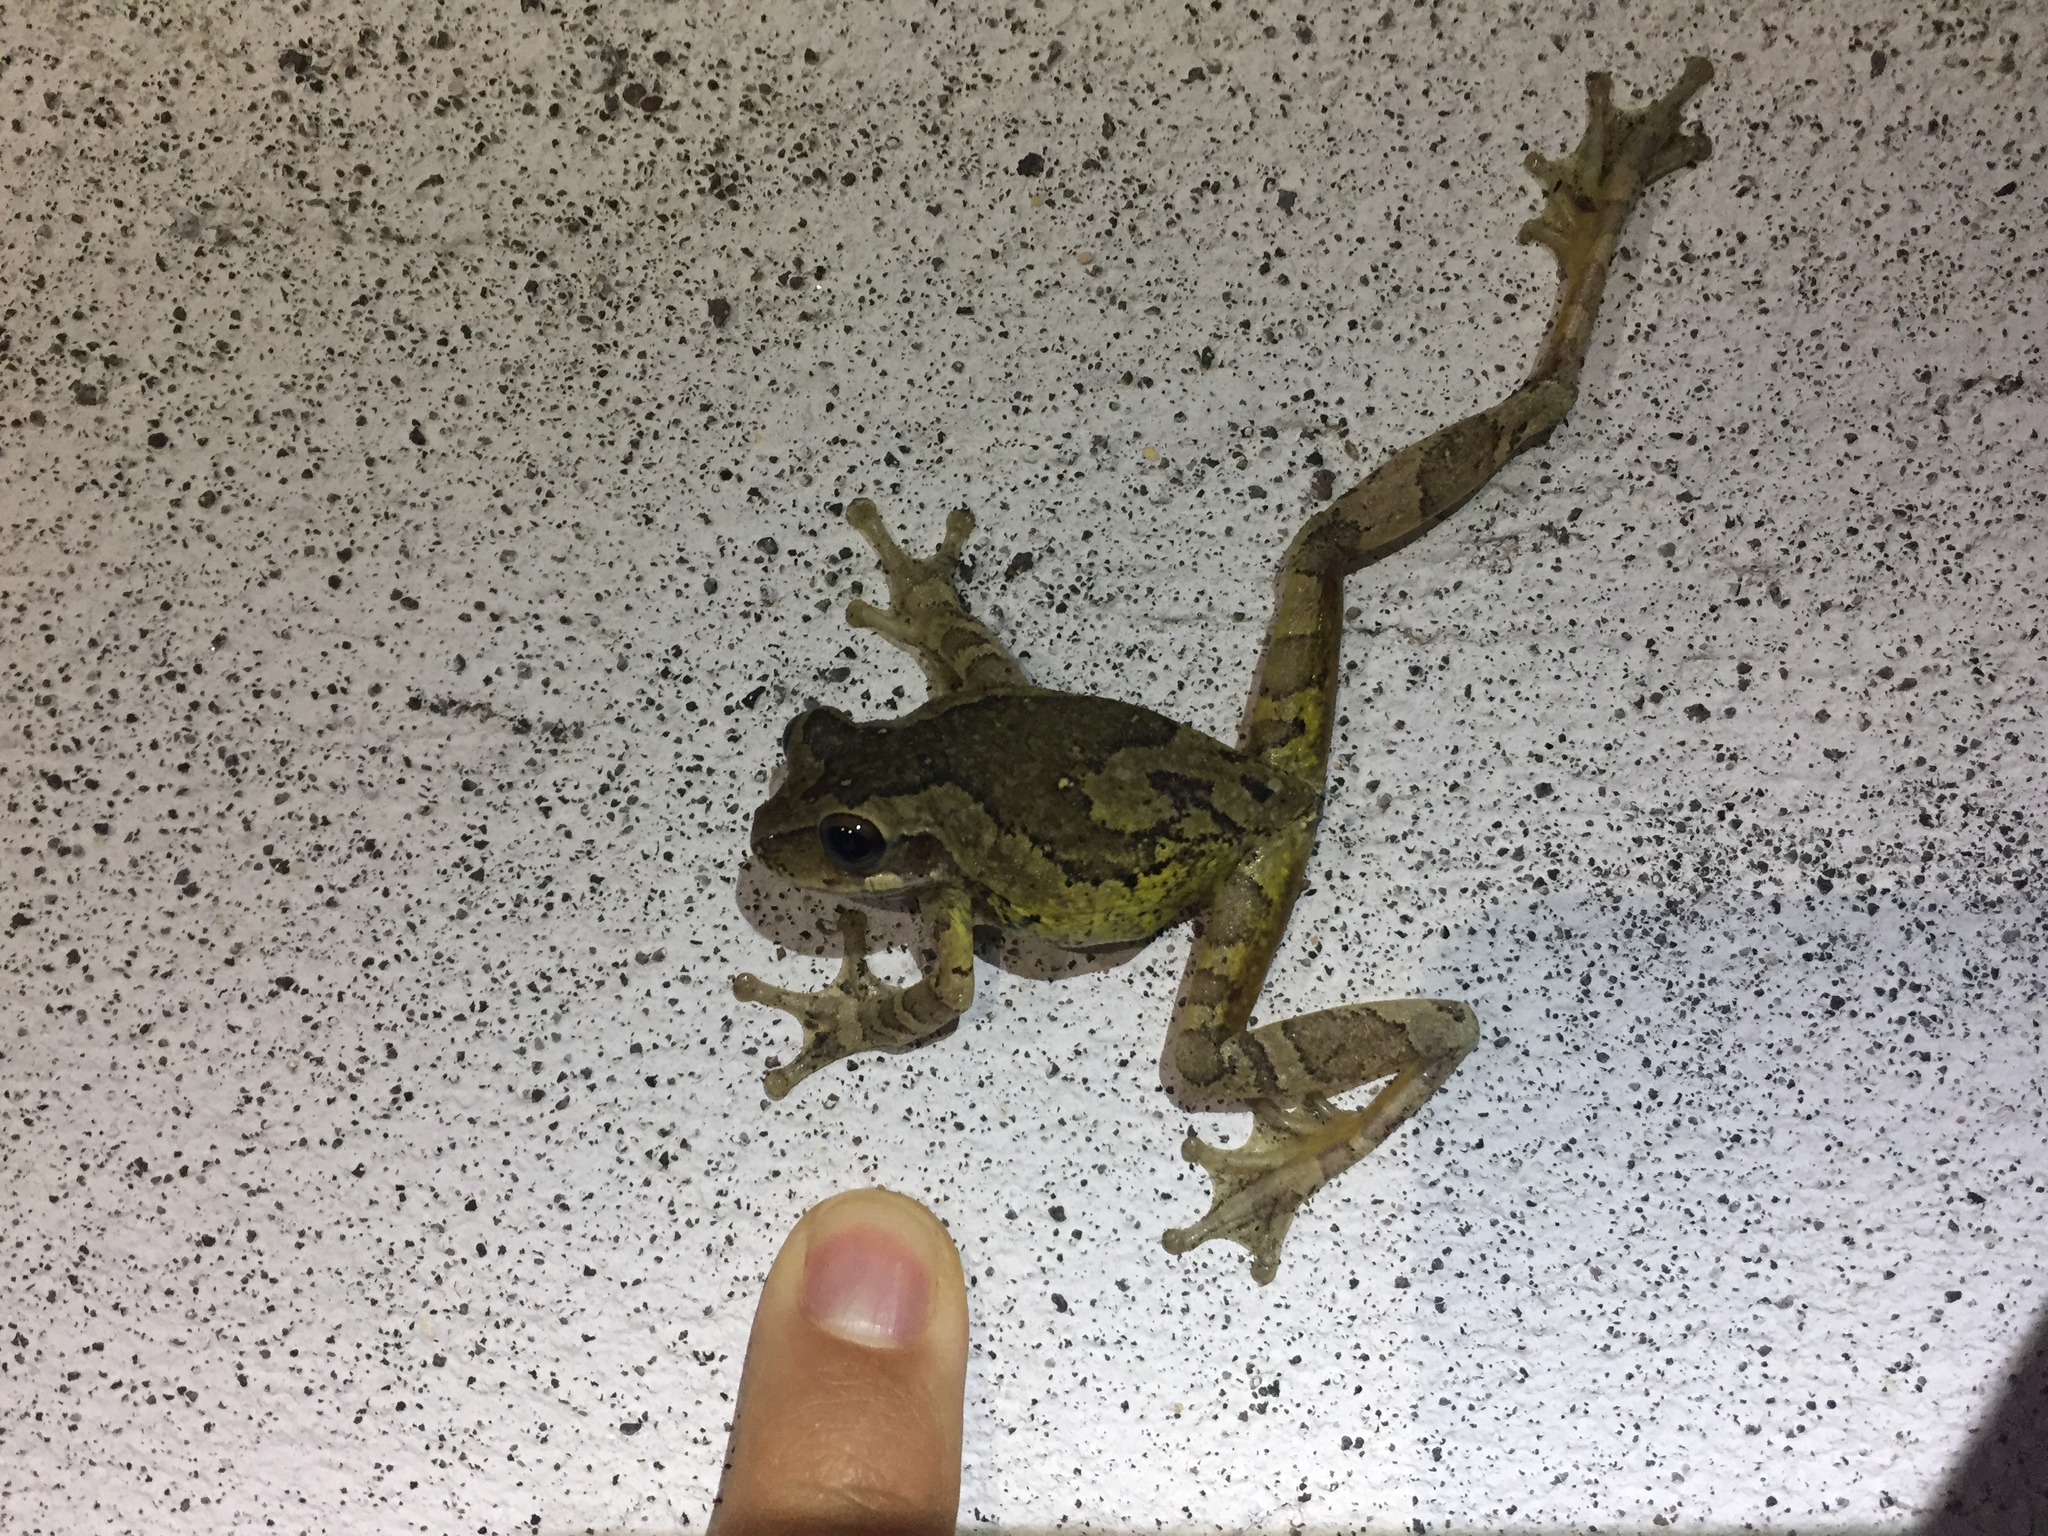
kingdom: Animalia
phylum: Chordata
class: Amphibia
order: Anura
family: Hylidae
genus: Smilisca
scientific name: Smilisca baudinii
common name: Mexican smilisca
